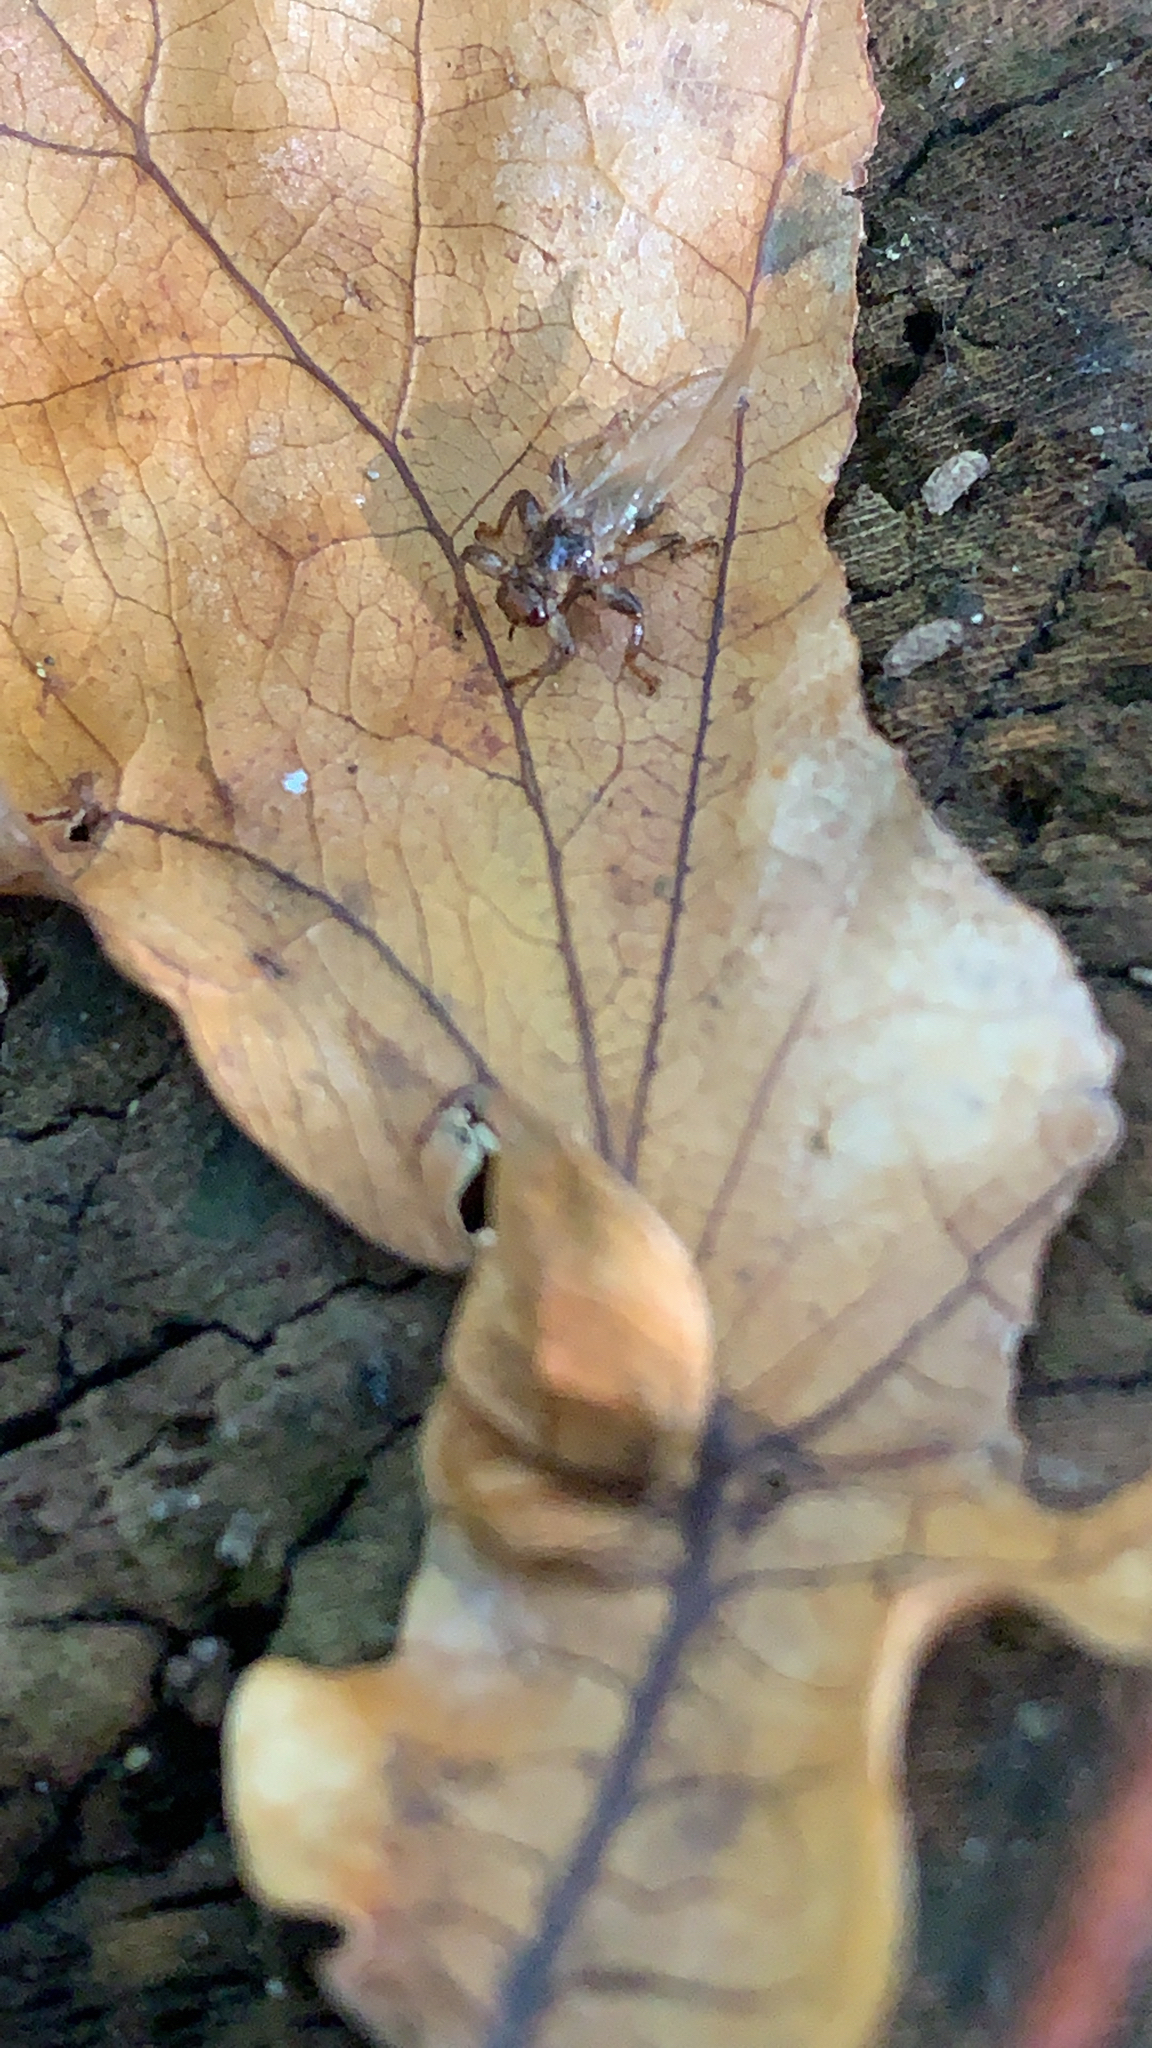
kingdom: Animalia
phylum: Arthropoda
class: Insecta
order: Diptera
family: Hippoboscidae
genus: Lipoptena
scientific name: Lipoptena cervi
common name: Deer ked
